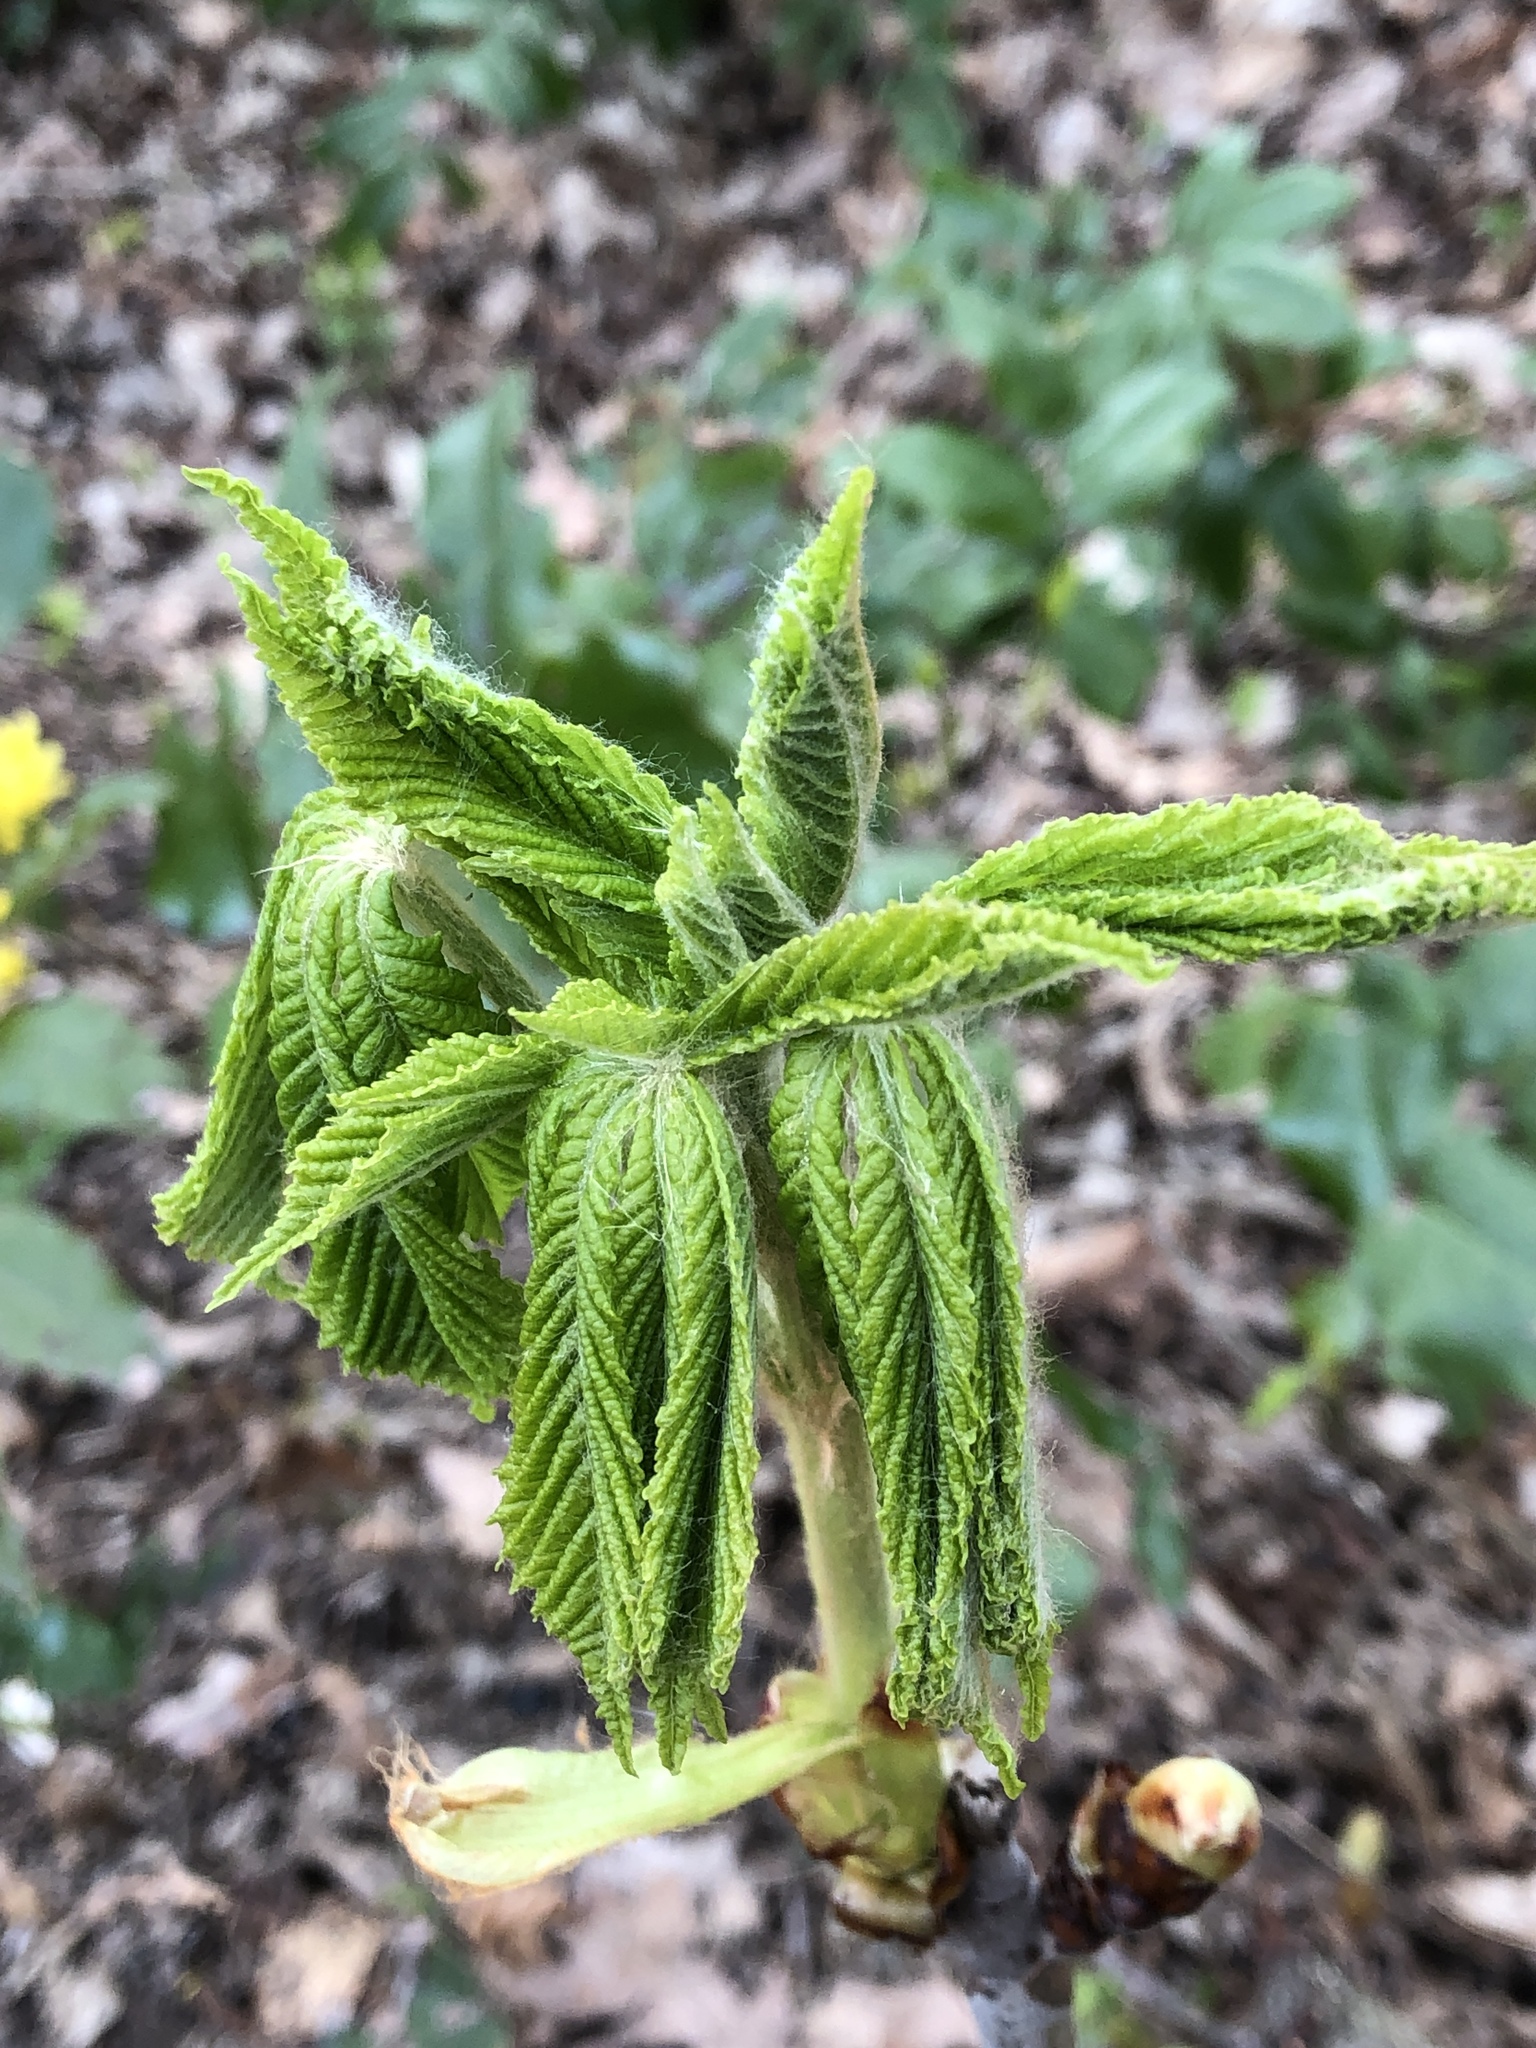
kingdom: Plantae
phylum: Tracheophyta
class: Magnoliopsida
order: Sapindales
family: Sapindaceae
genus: Aesculus
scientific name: Aesculus hippocastanum
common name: Horse-chestnut
